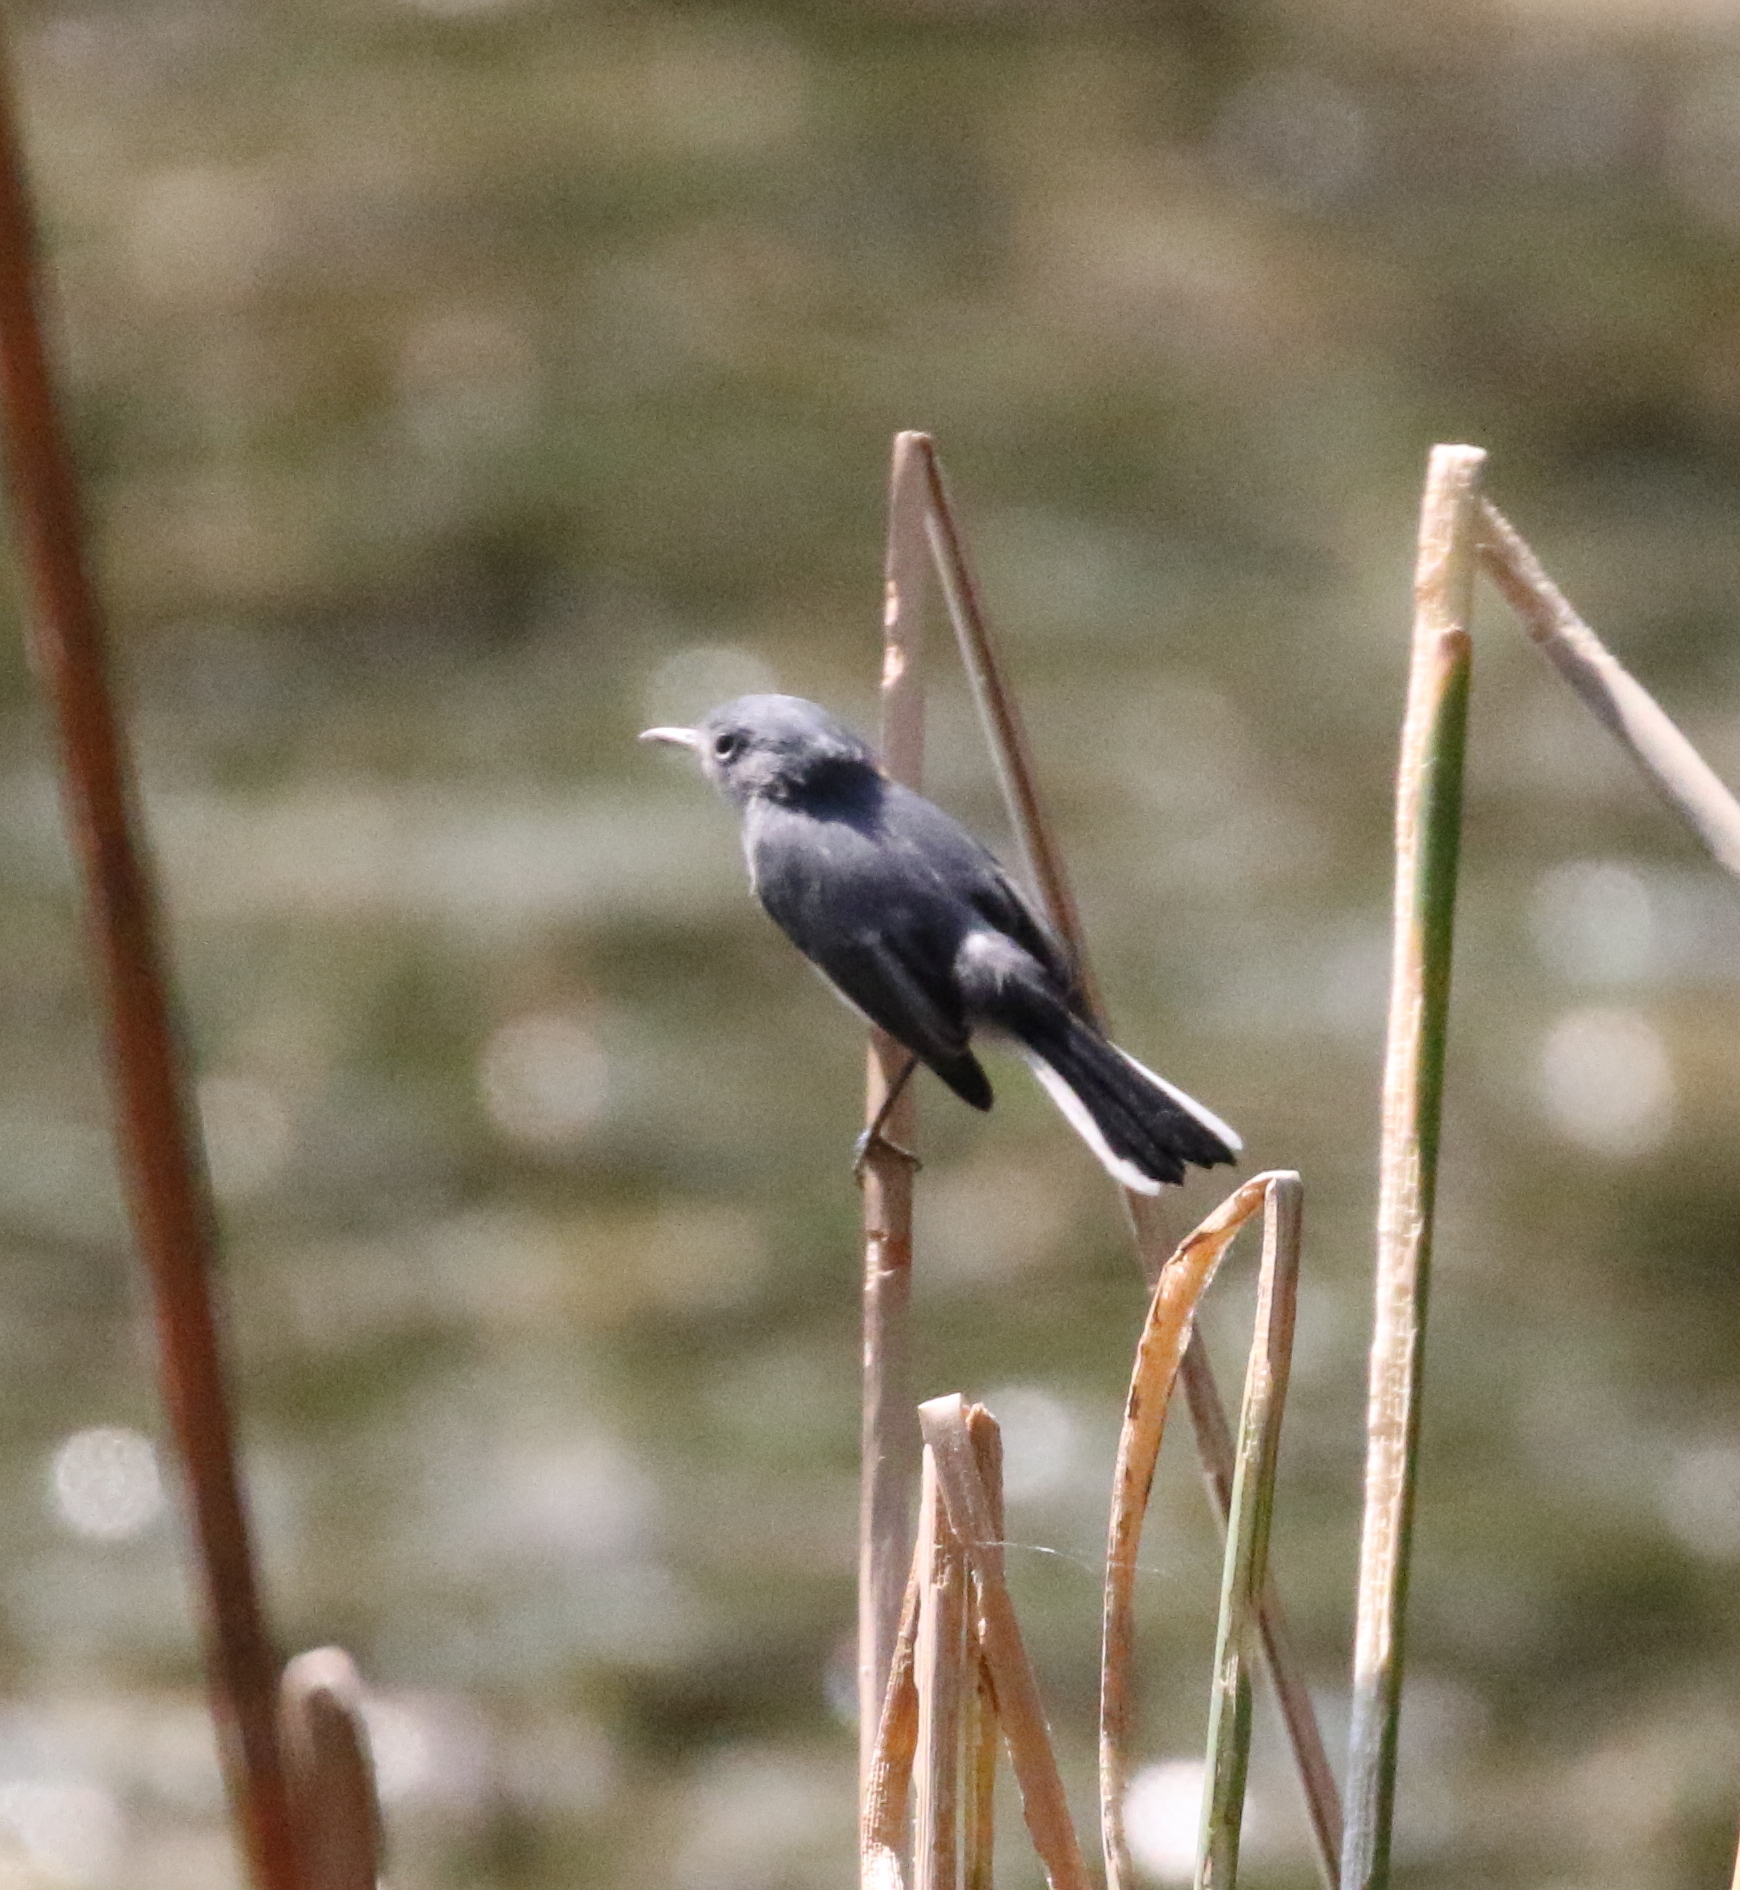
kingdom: Animalia
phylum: Chordata
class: Aves
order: Passeriformes
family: Polioptilidae
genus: Polioptila
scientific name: Polioptila caerulea
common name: Blue-gray gnatcatcher
